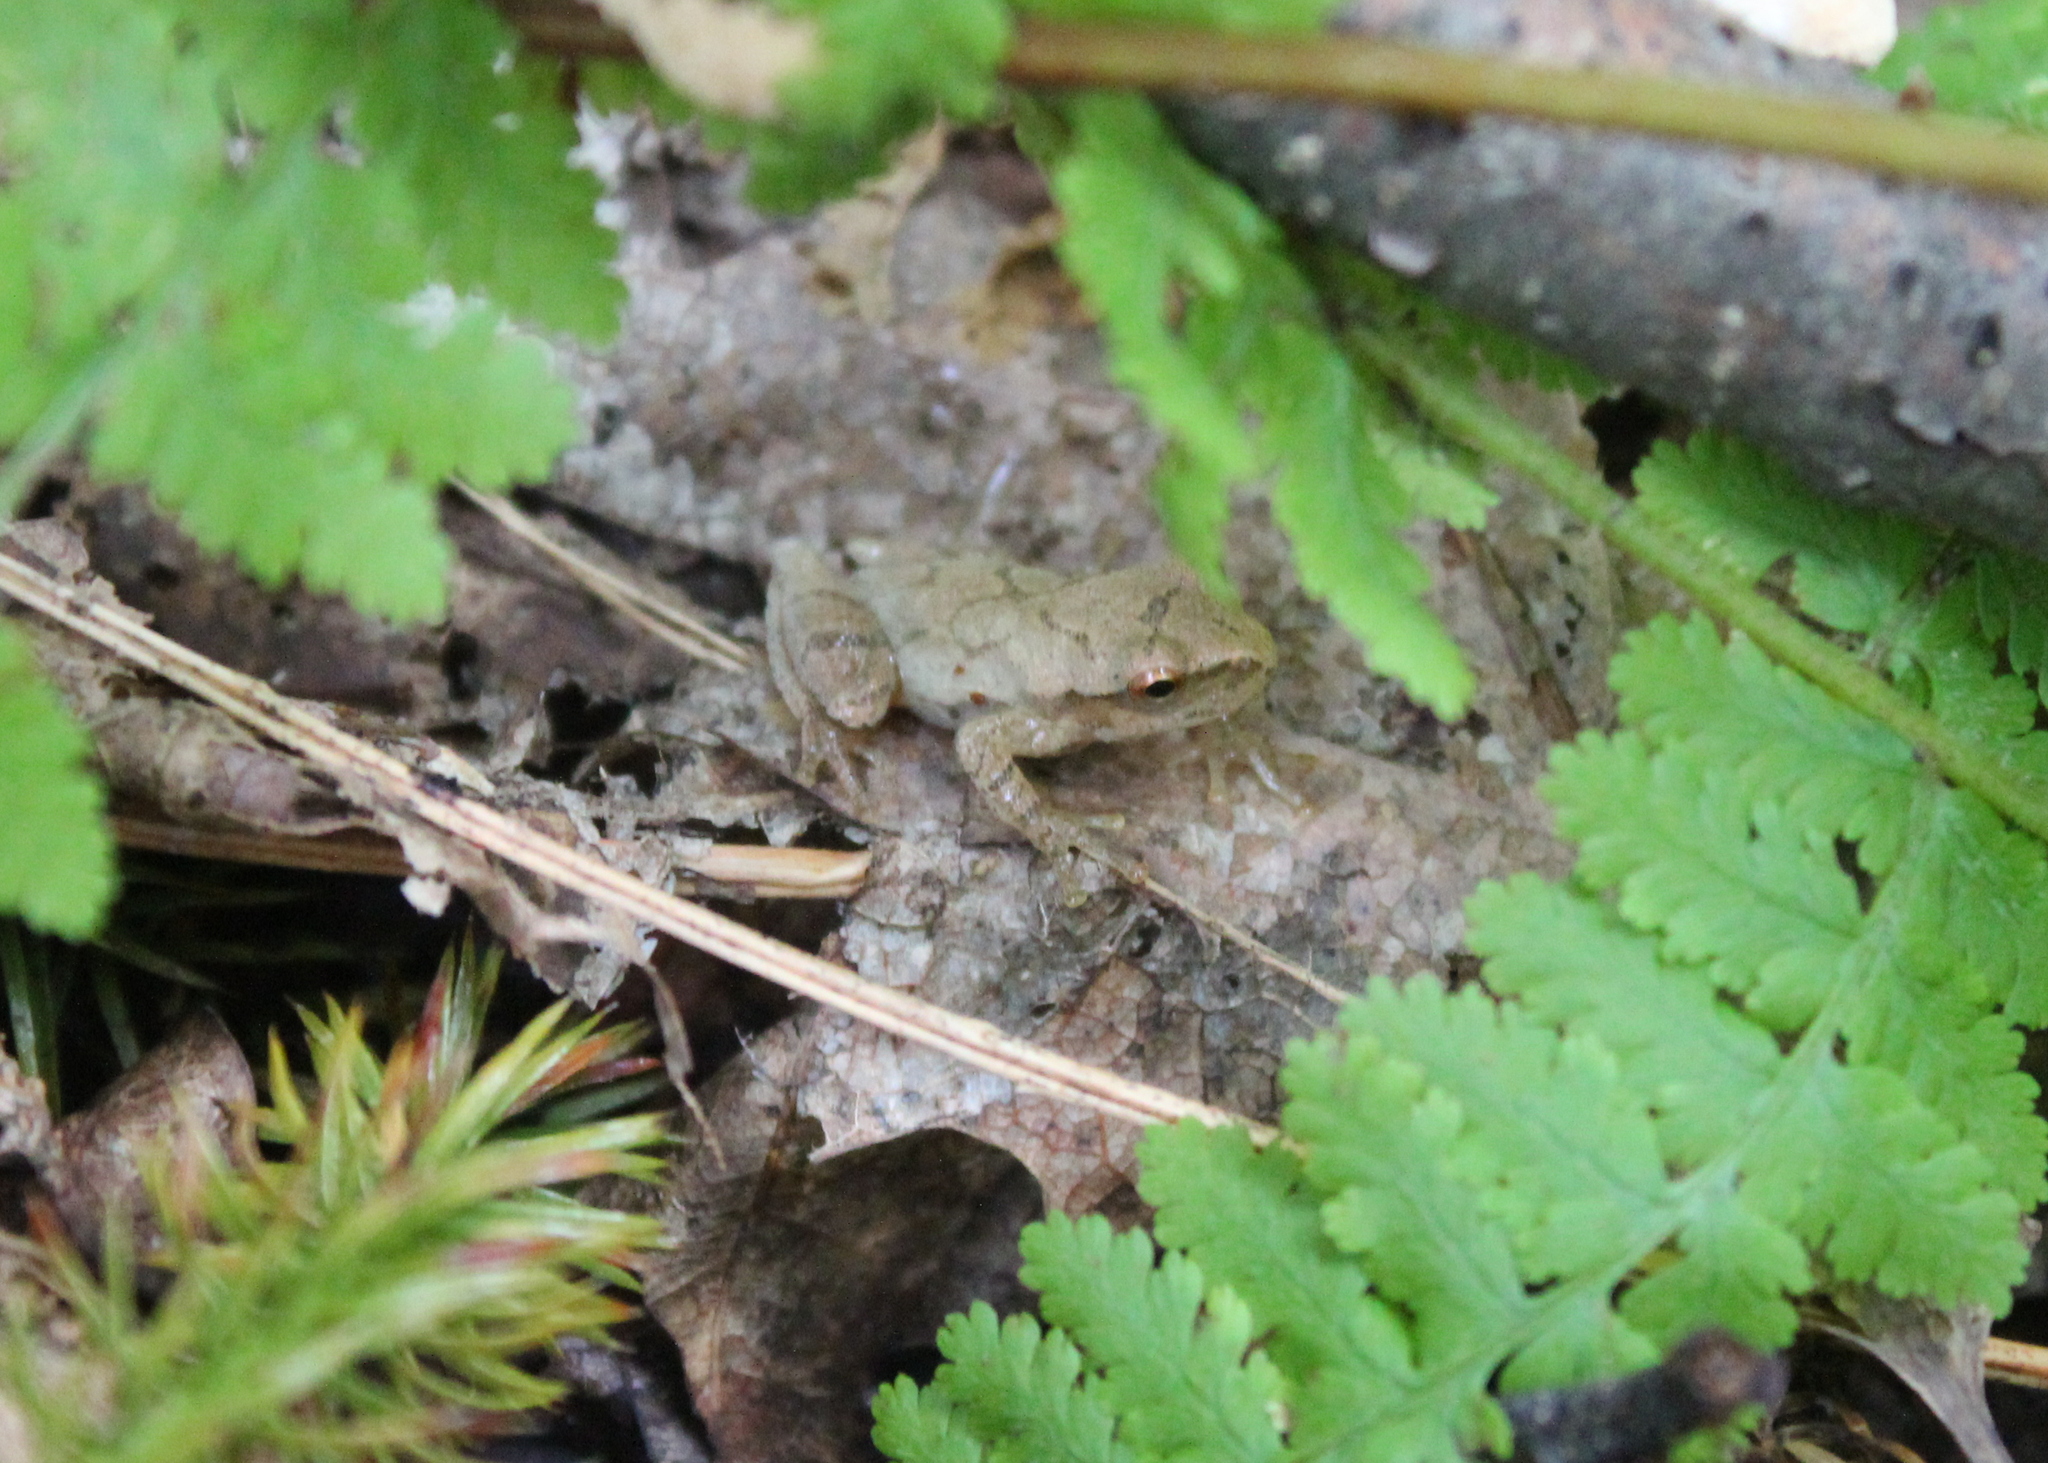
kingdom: Animalia
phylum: Chordata
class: Amphibia
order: Anura
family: Hylidae
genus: Pseudacris
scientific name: Pseudacris crucifer
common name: Spring peeper
